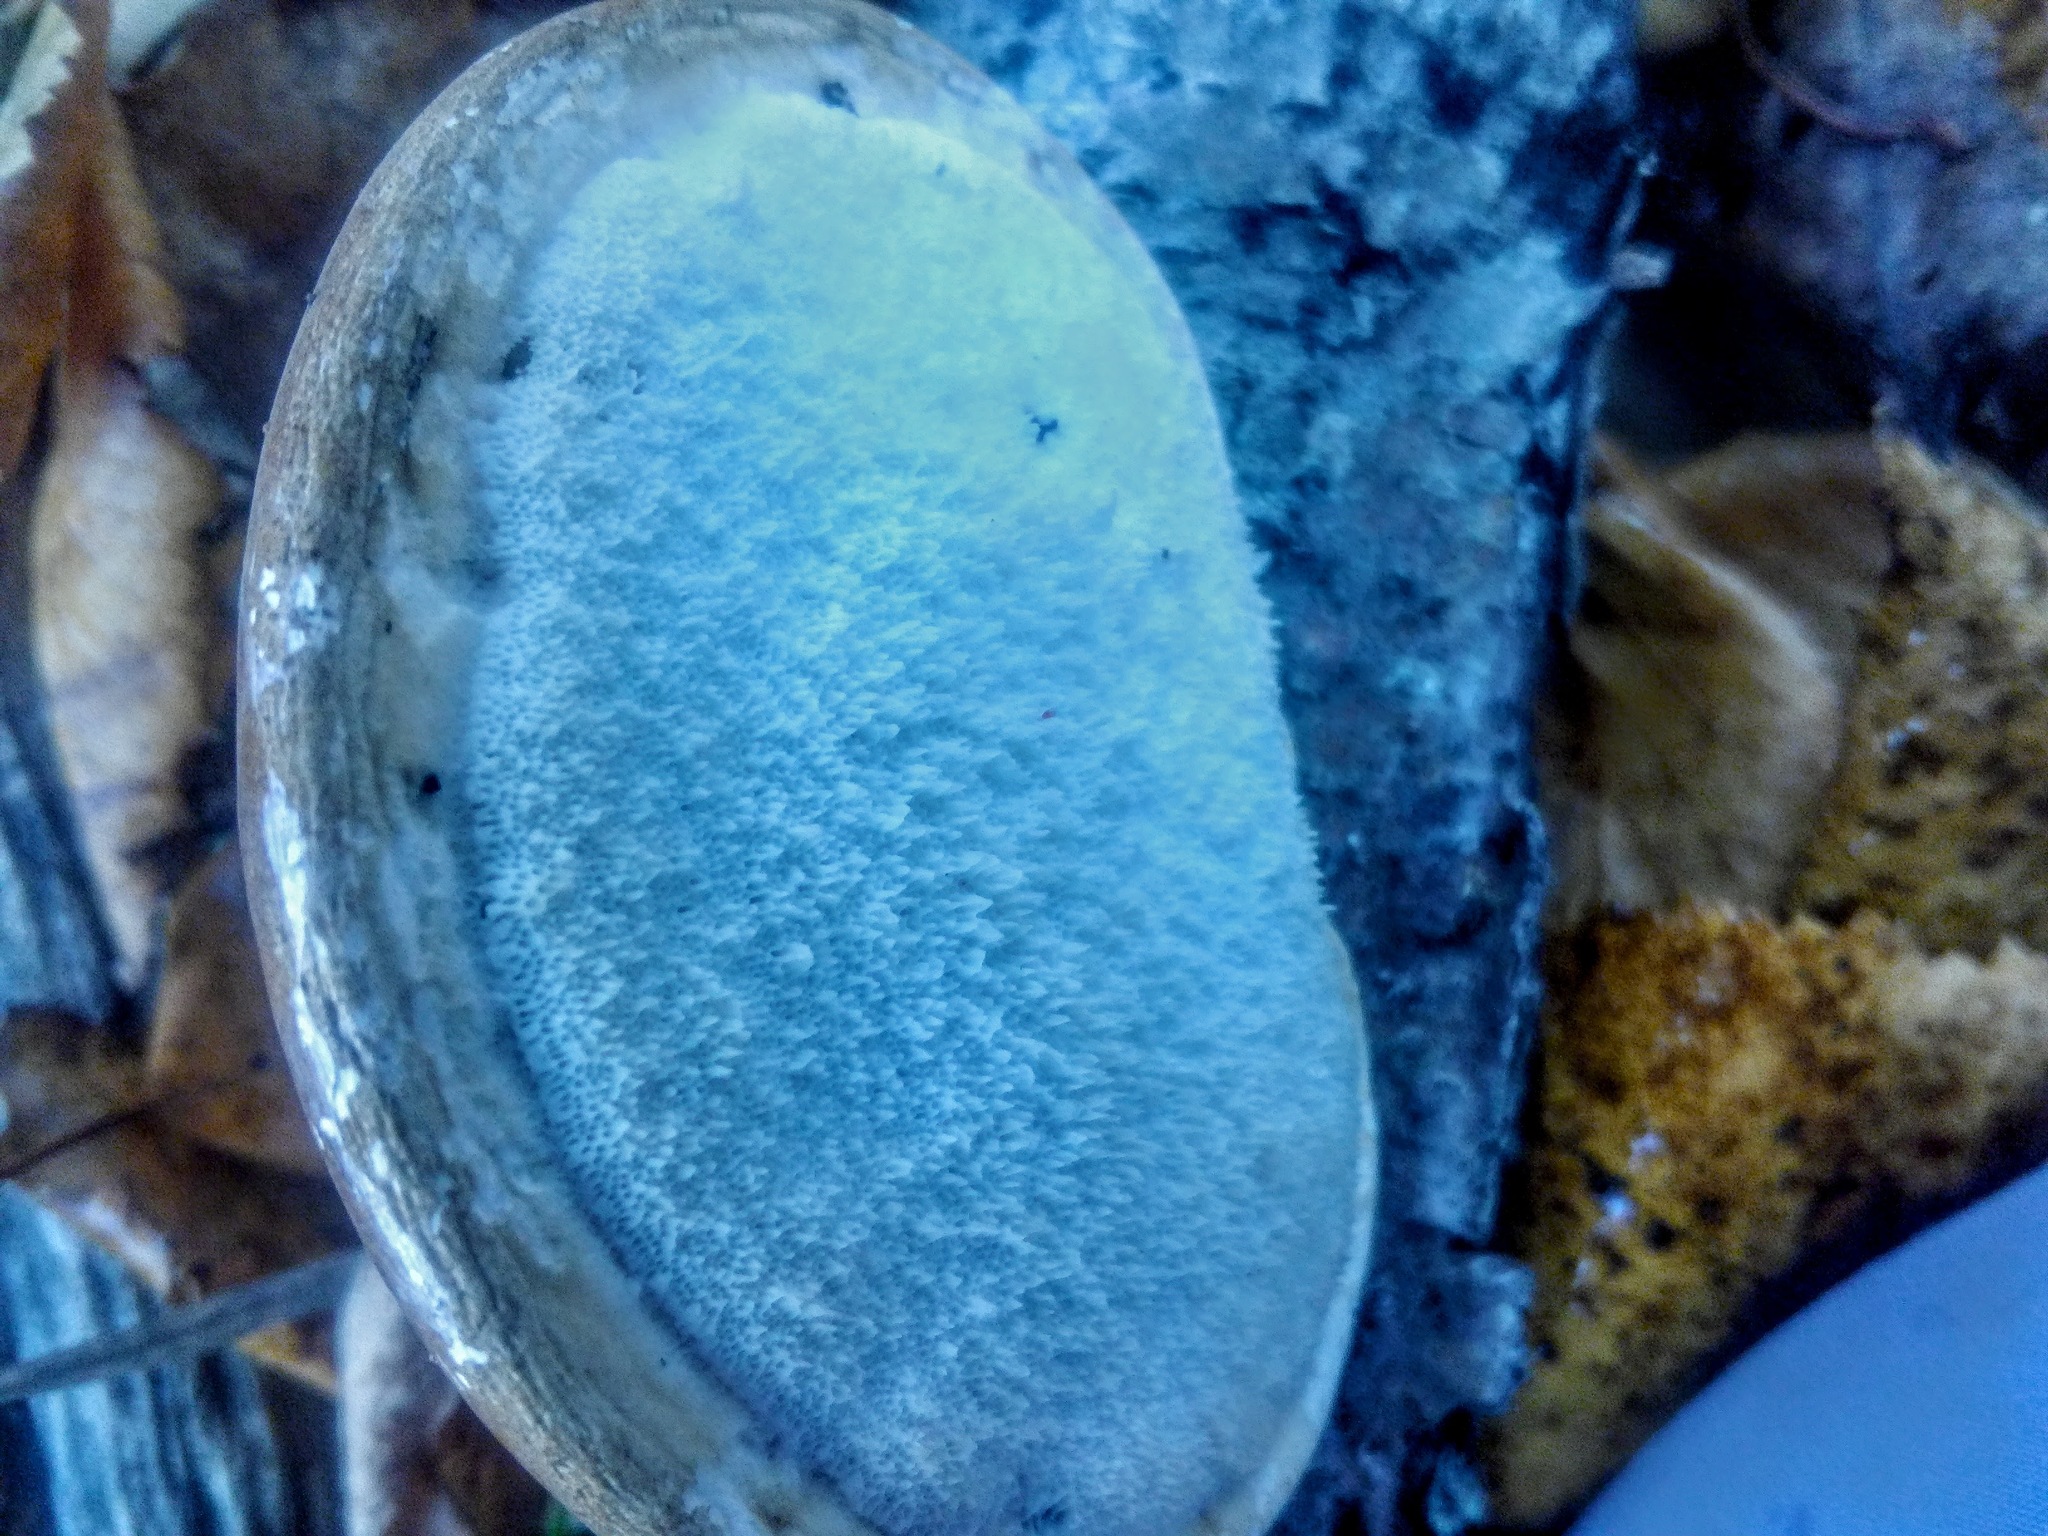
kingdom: Fungi
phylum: Basidiomycota
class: Agaricomycetes
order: Polyporales
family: Fomitopsidaceae
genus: Fomitopsis
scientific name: Fomitopsis betulina
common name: Birch polypore
